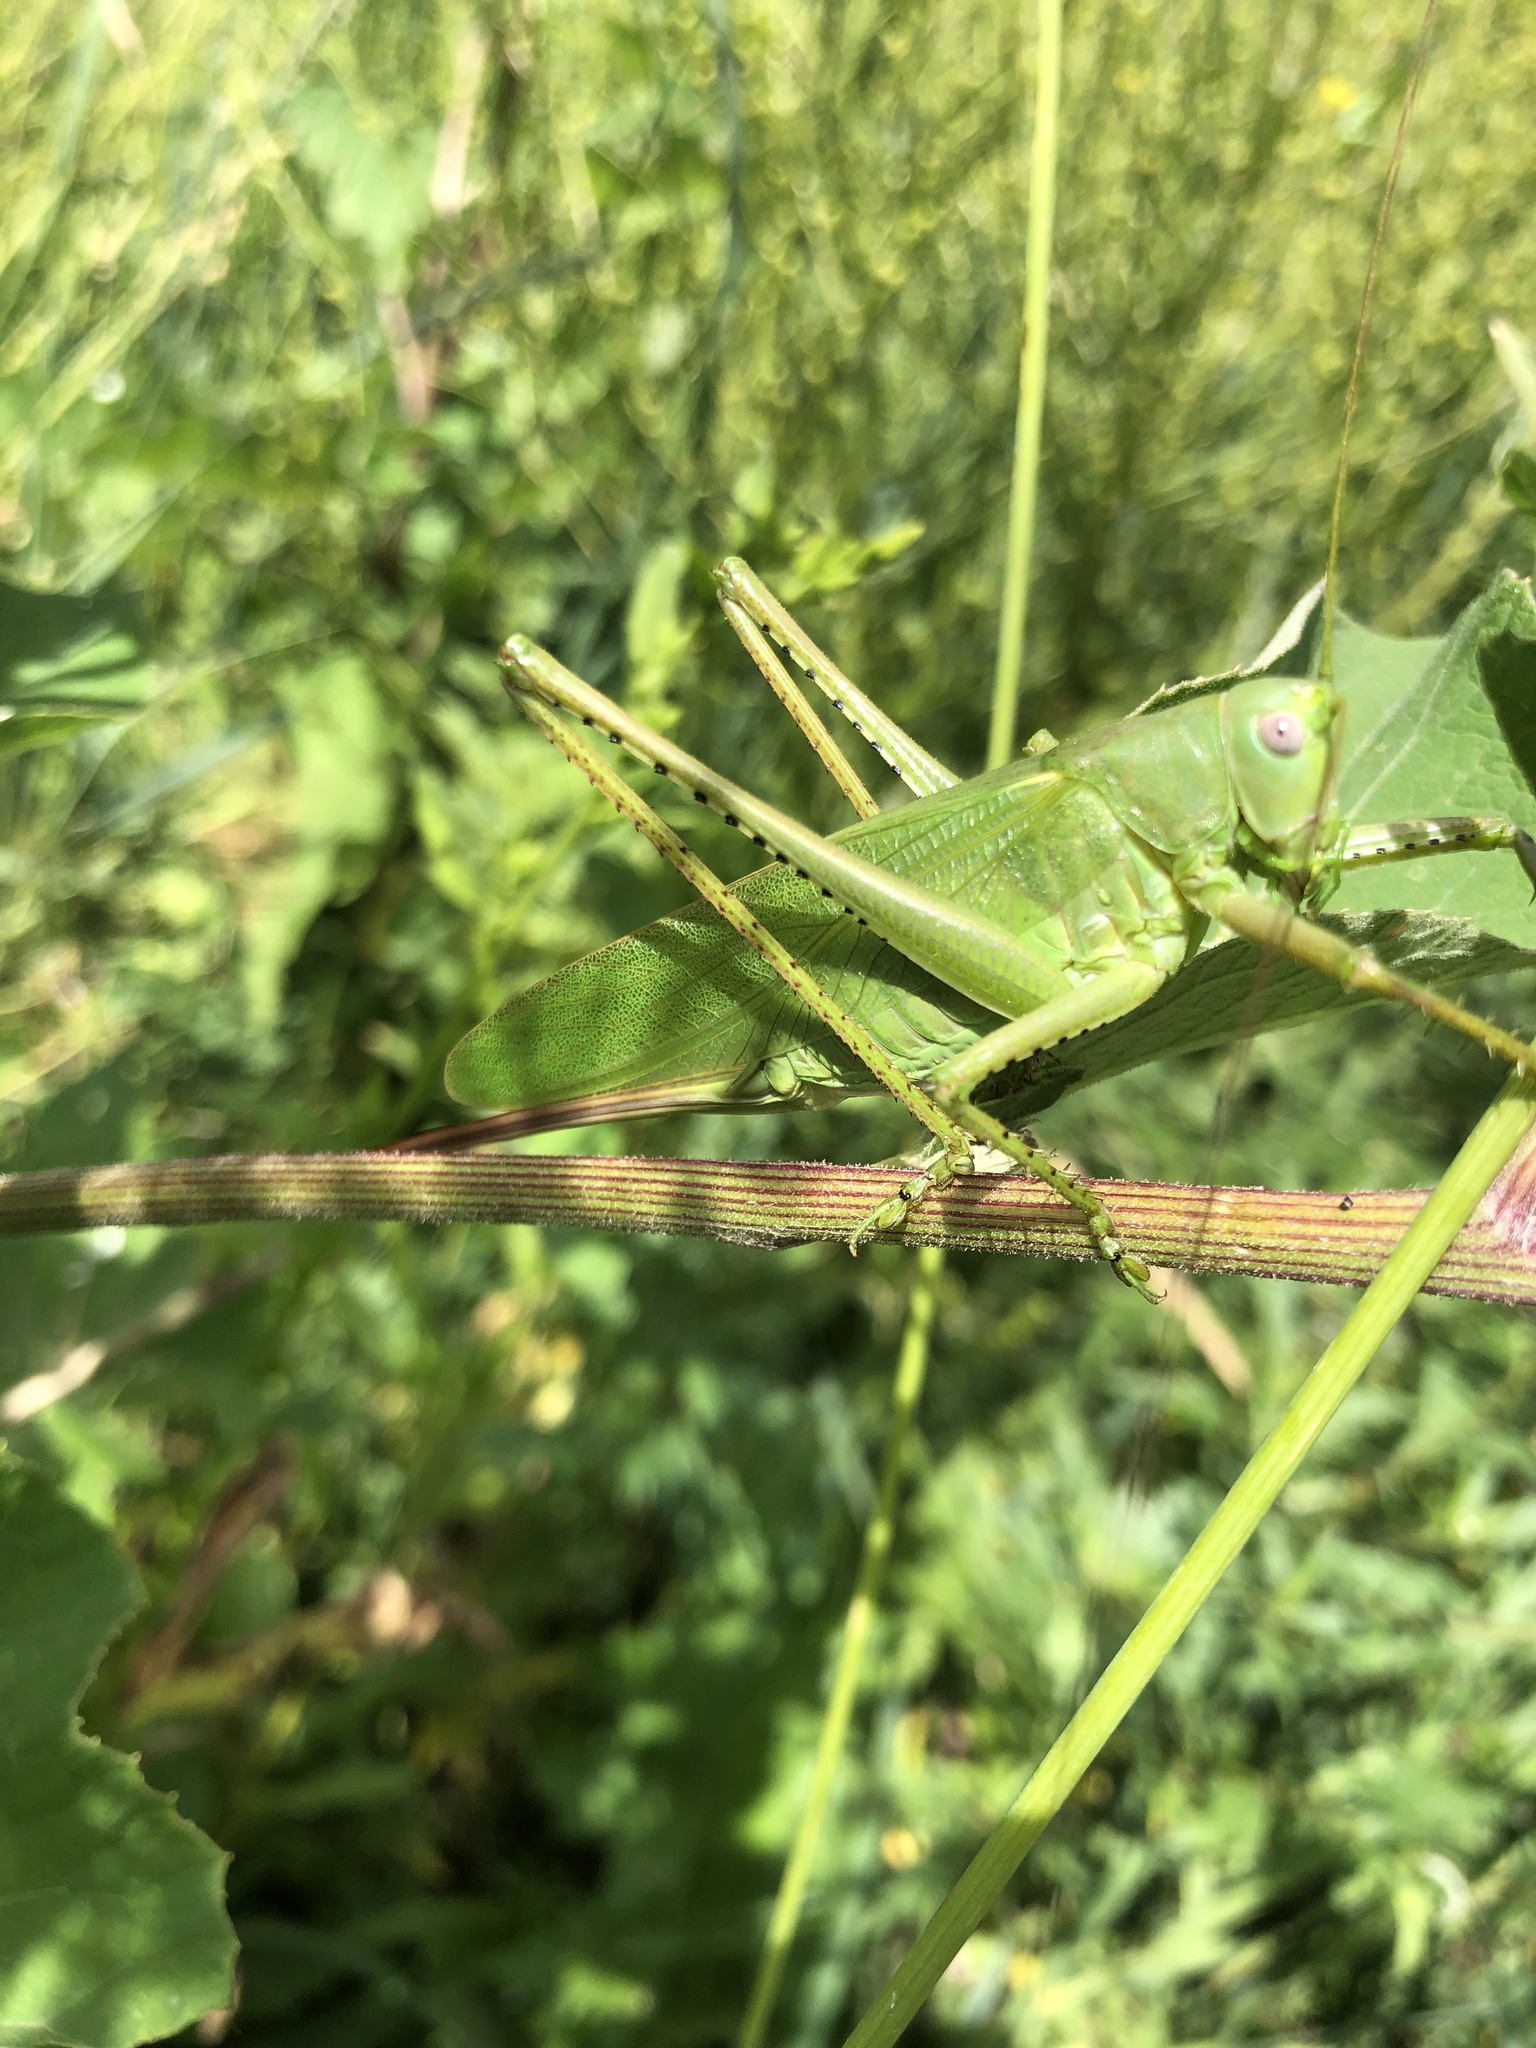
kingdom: Animalia
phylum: Arthropoda
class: Insecta
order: Orthoptera
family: Tettigoniidae
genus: Tettigonia
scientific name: Tettigonia caudata
